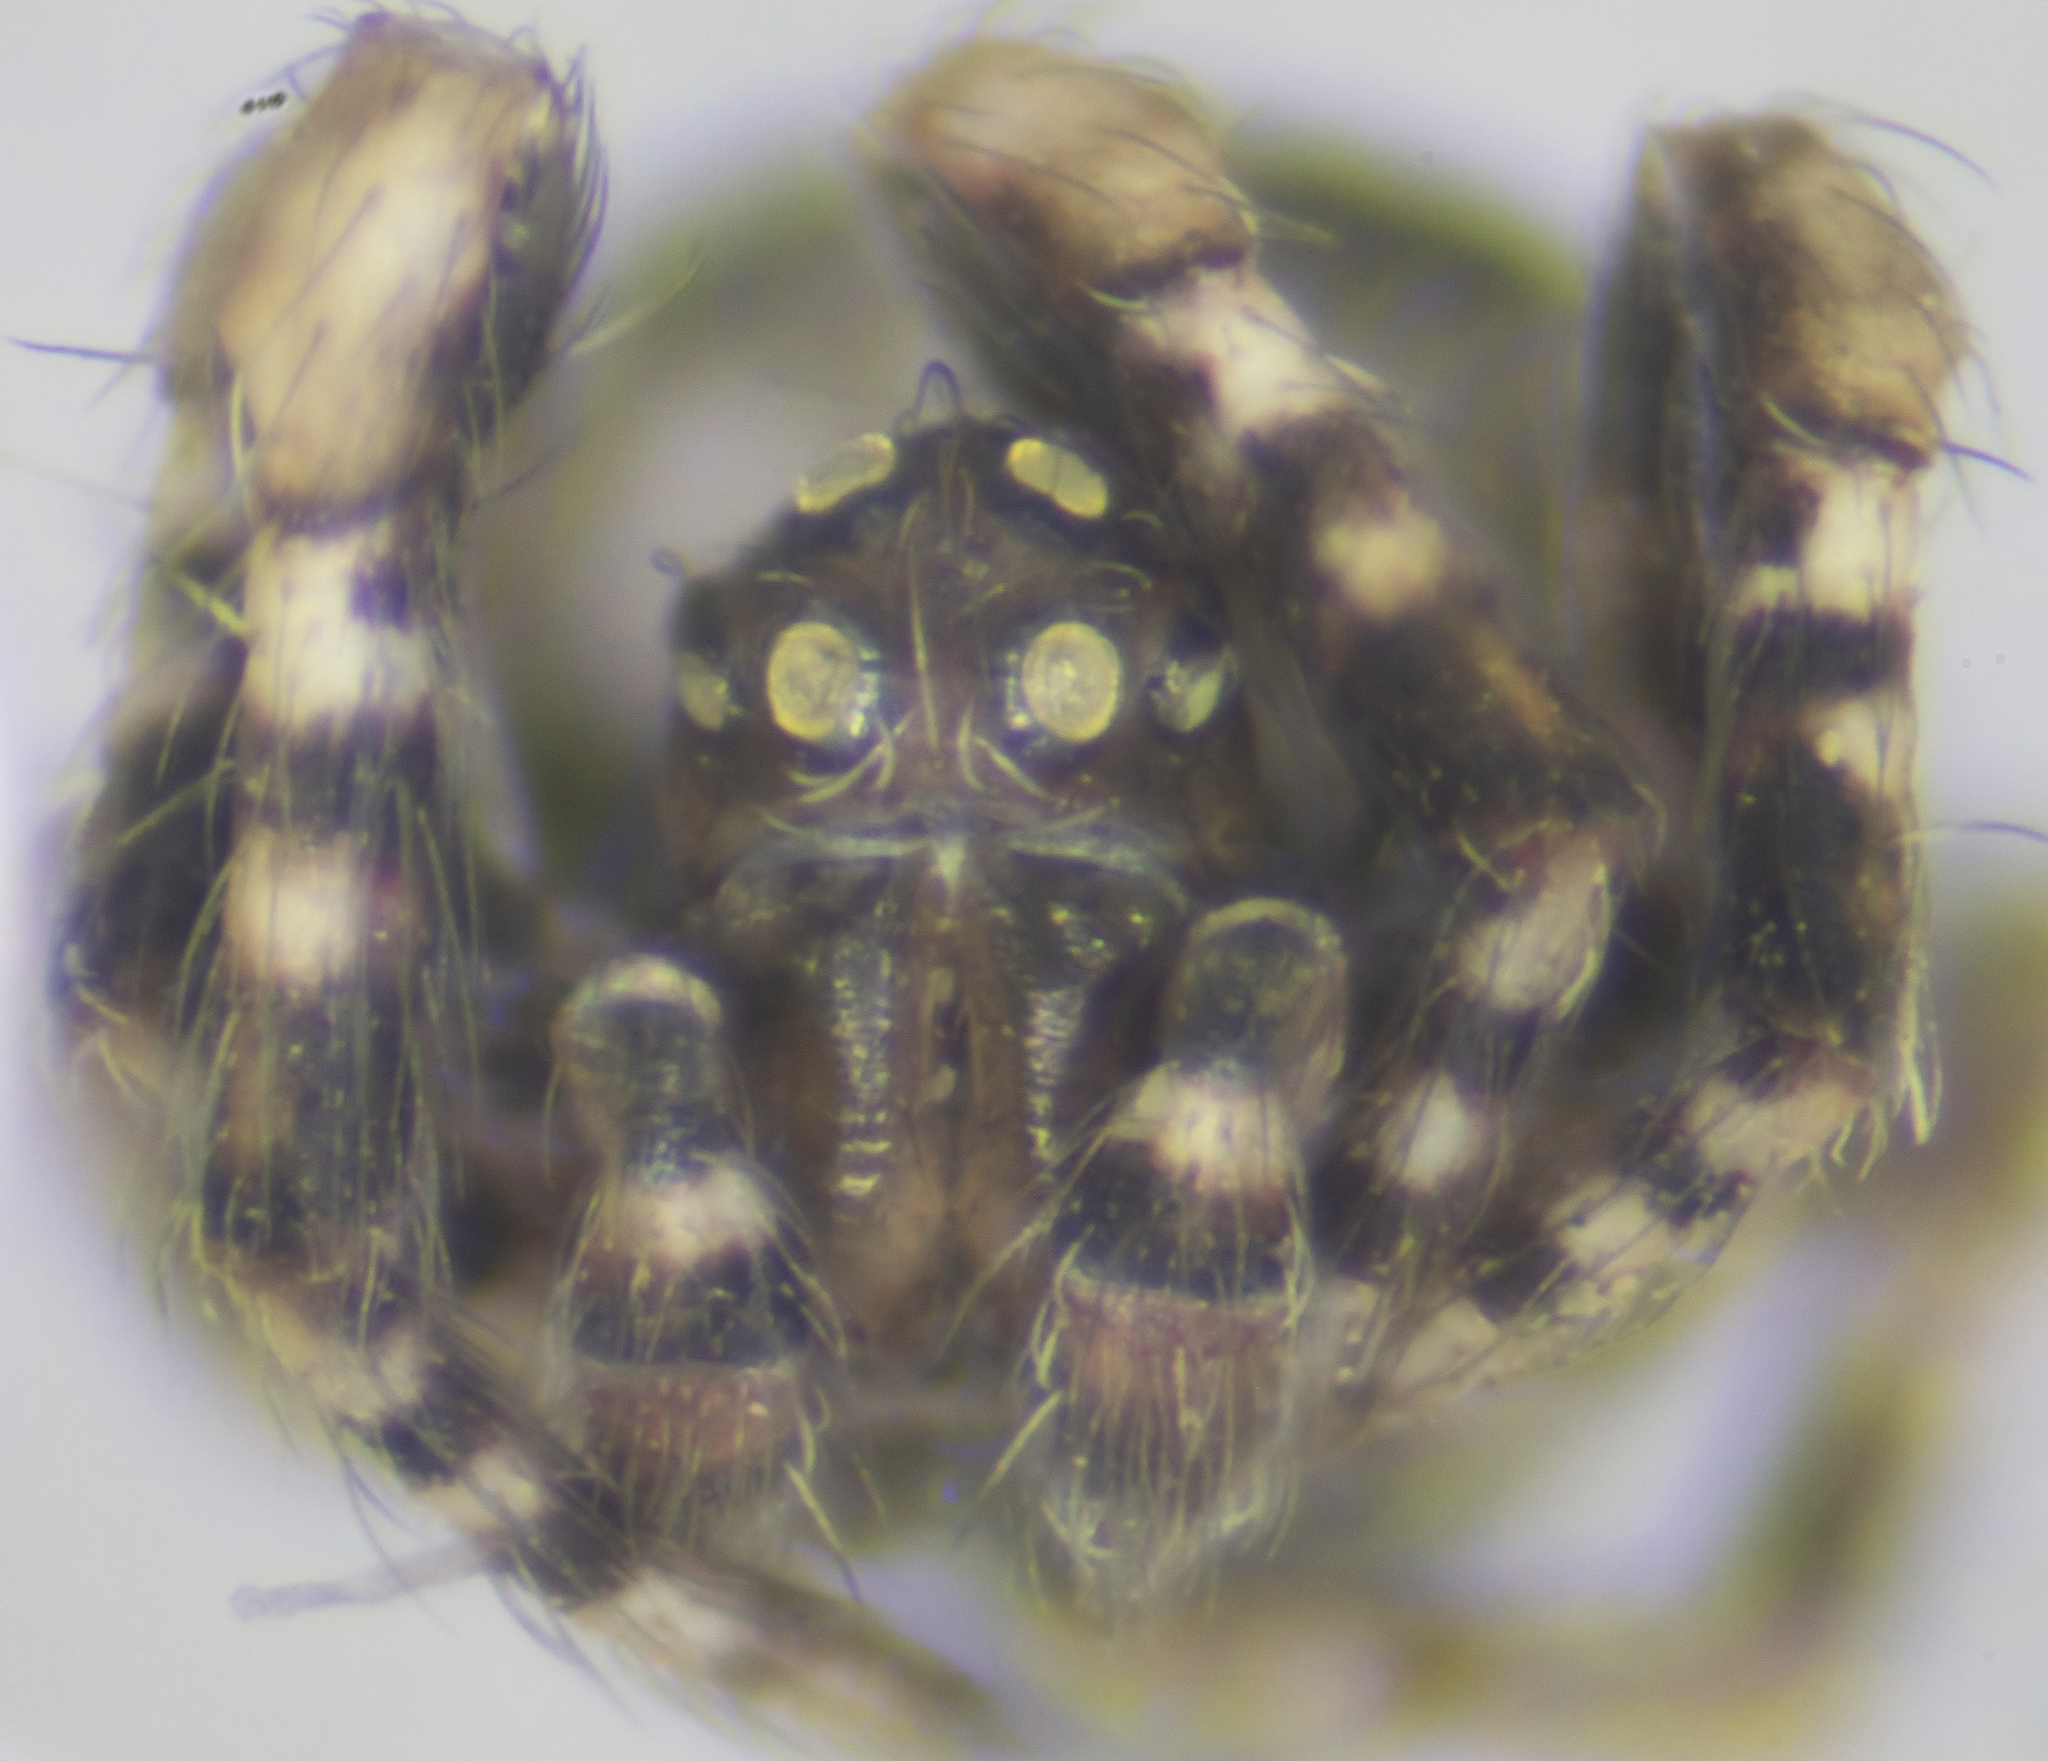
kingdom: Animalia
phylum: Arthropoda
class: Arachnida
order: Araneae
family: Araneidae
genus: Cyrtophora
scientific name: Cyrtophora citricola
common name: Orb weavers
